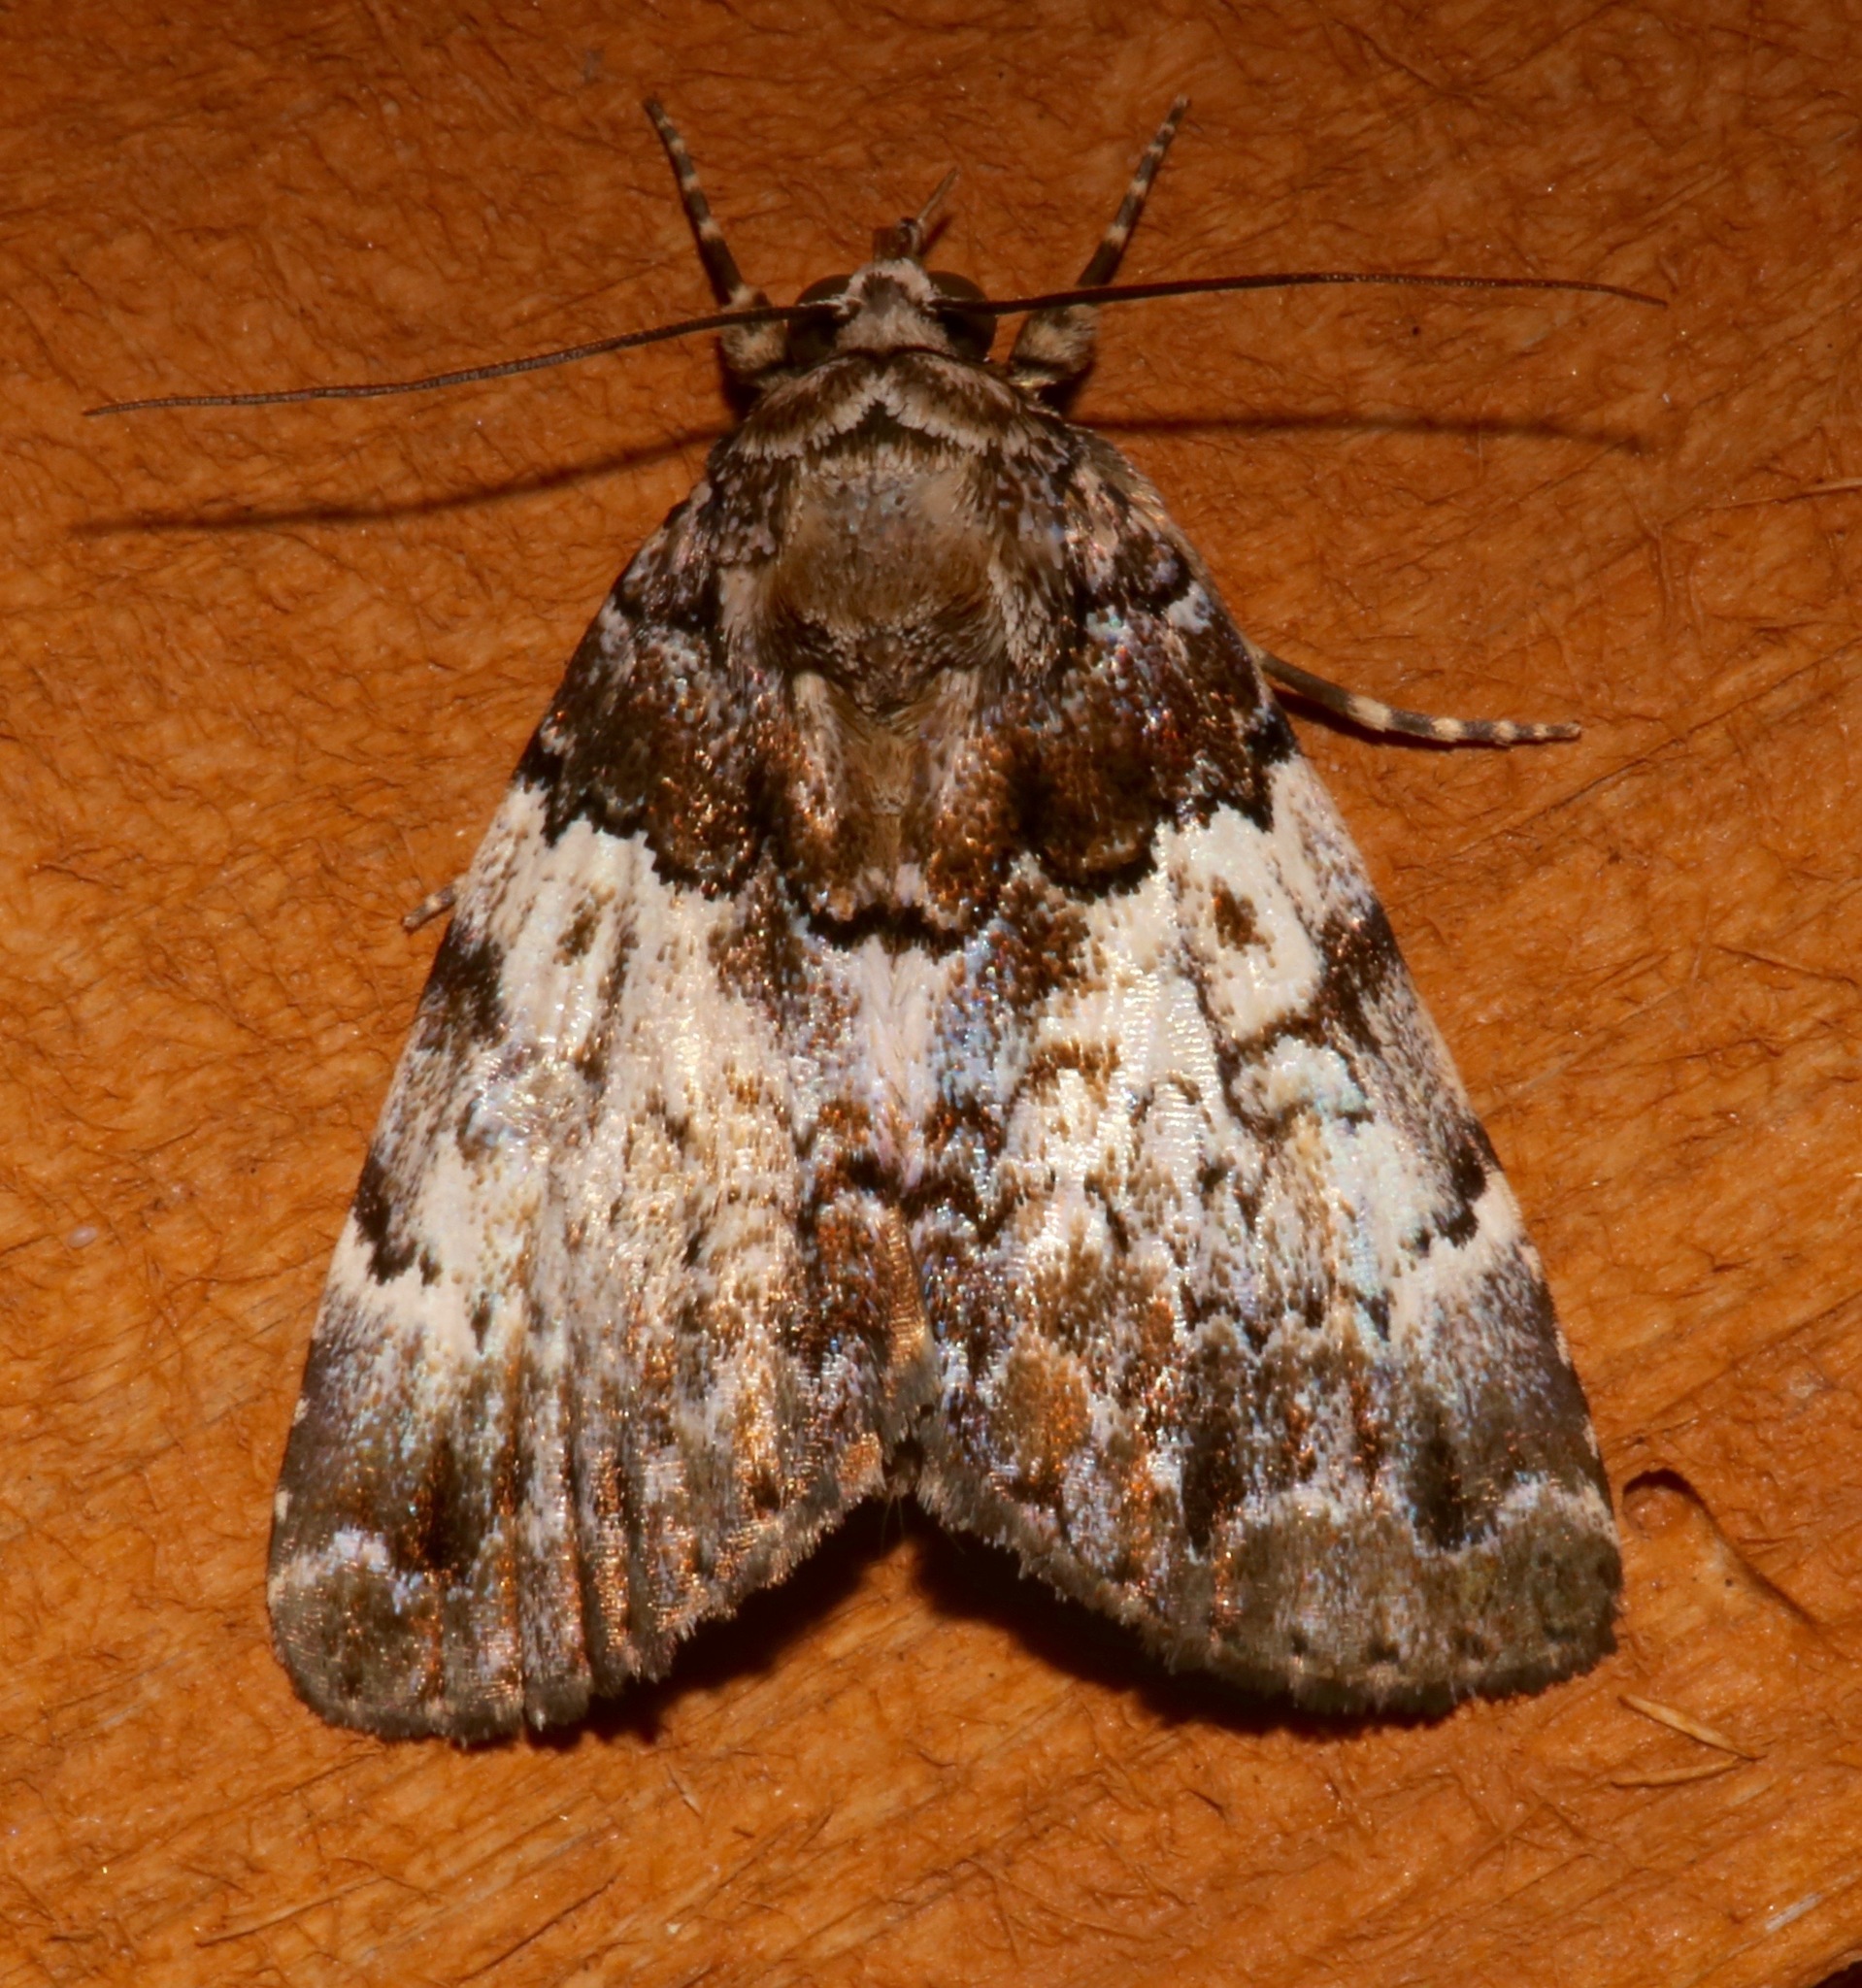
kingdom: Animalia
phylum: Arthropoda
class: Insecta
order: Lepidoptera
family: Erebidae
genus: Allotria
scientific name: Allotria elonympha
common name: False underwing
